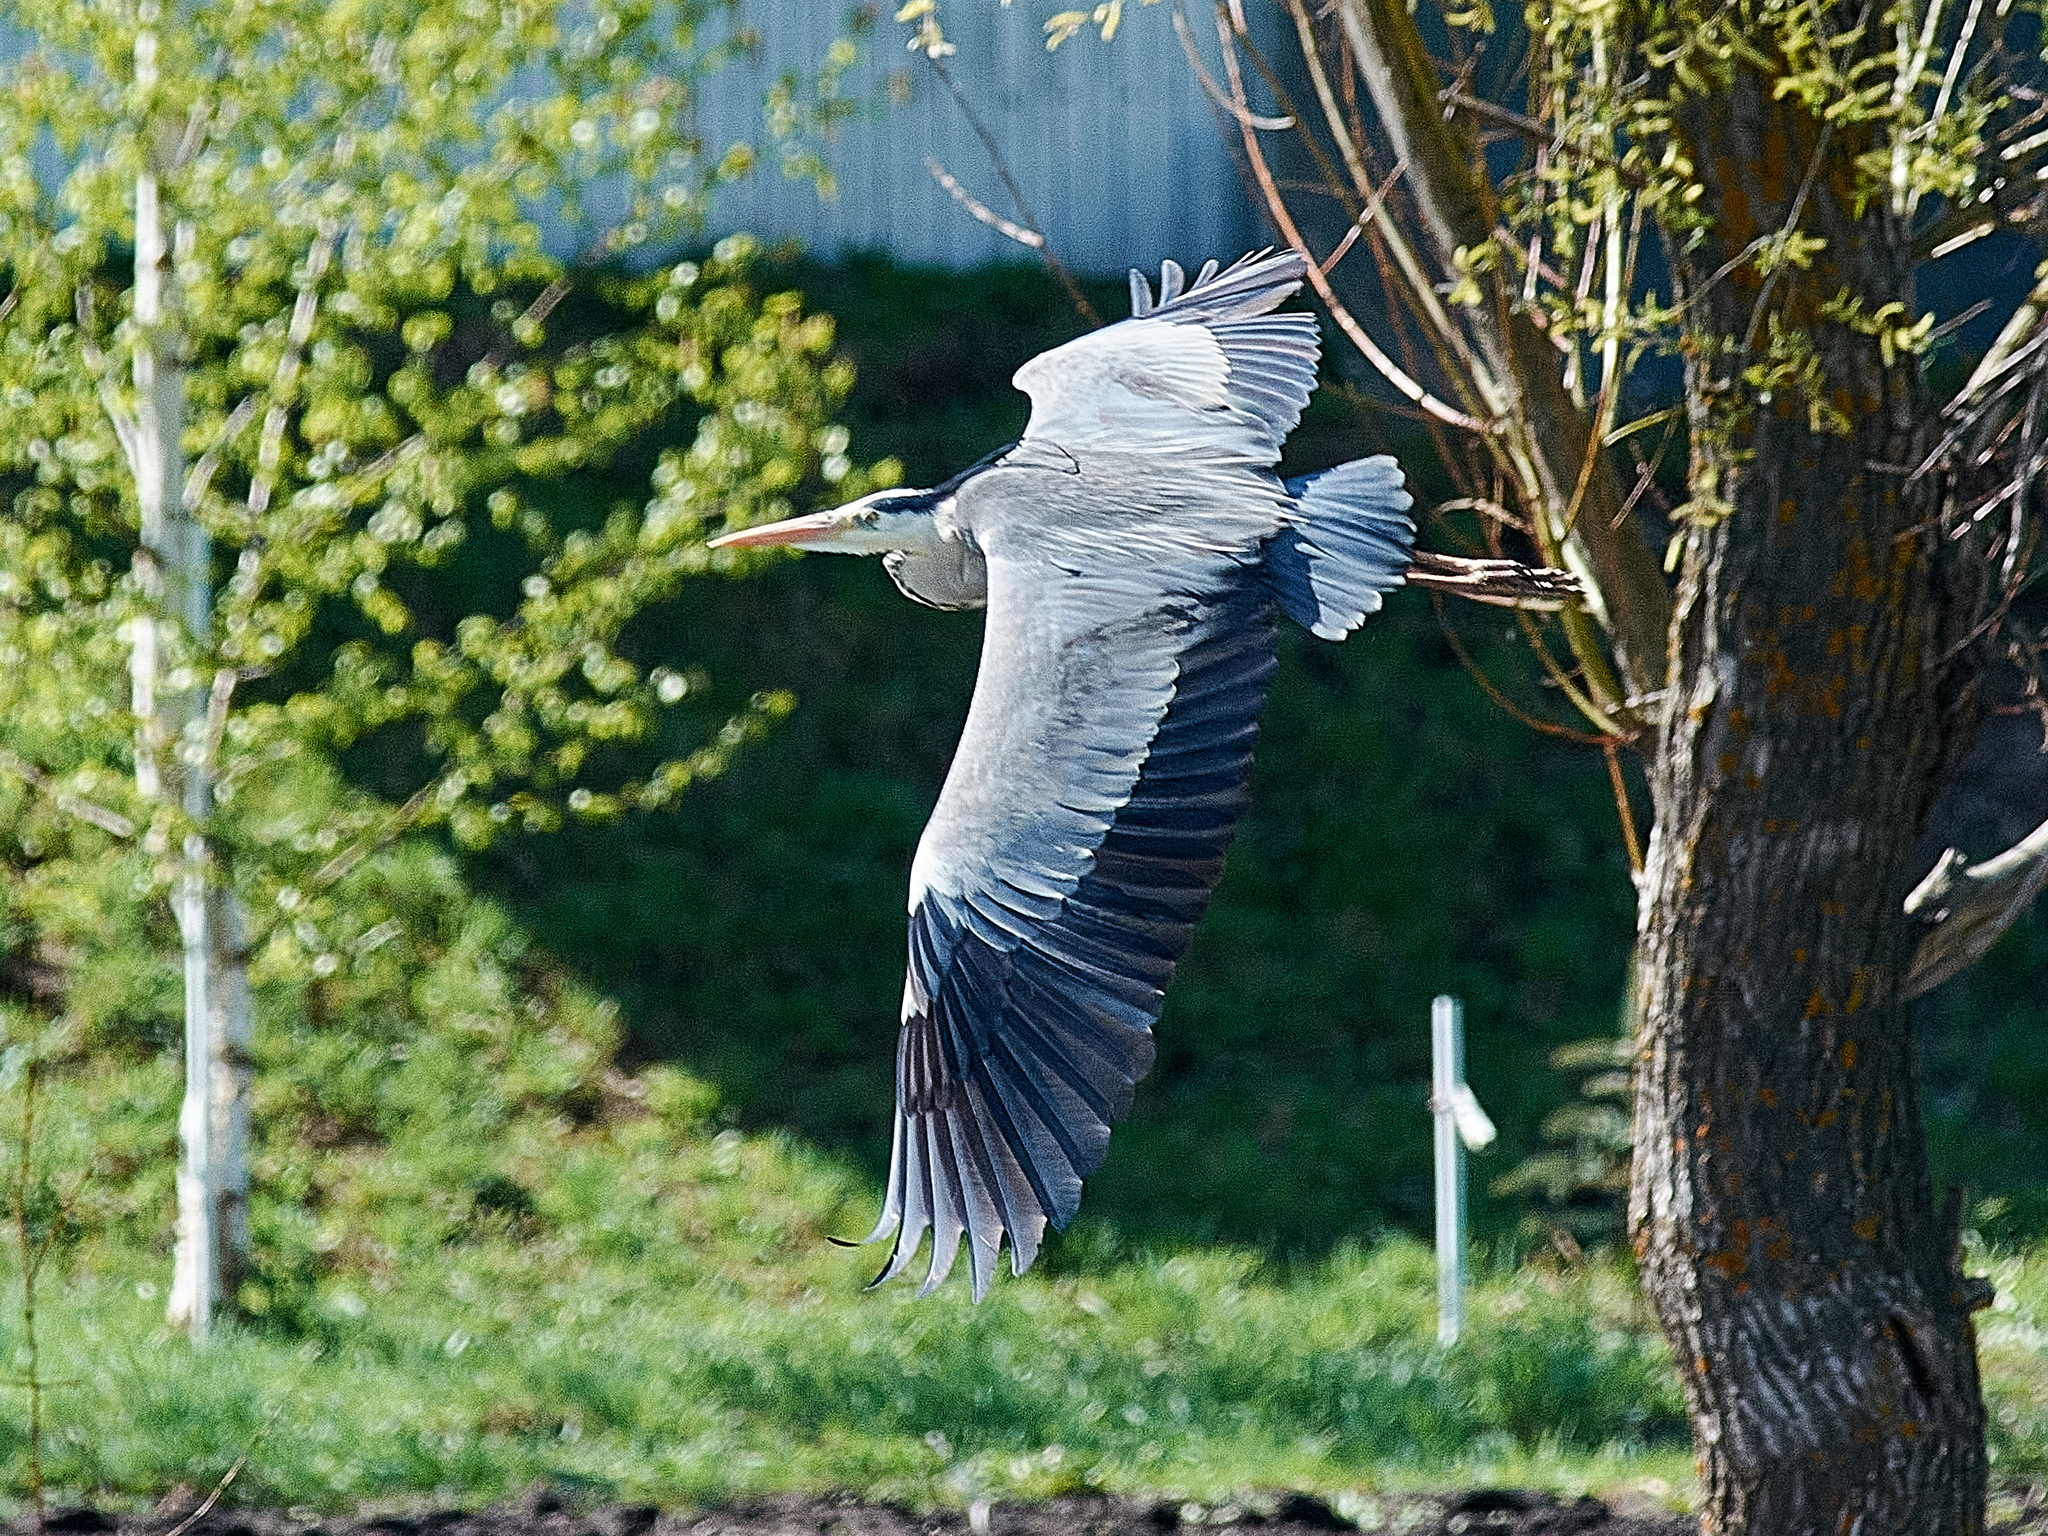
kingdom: Animalia
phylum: Chordata
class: Aves
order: Pelecaniformes
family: Ardeidae
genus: Ardea
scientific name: Ardea cinerea
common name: Grey heron
